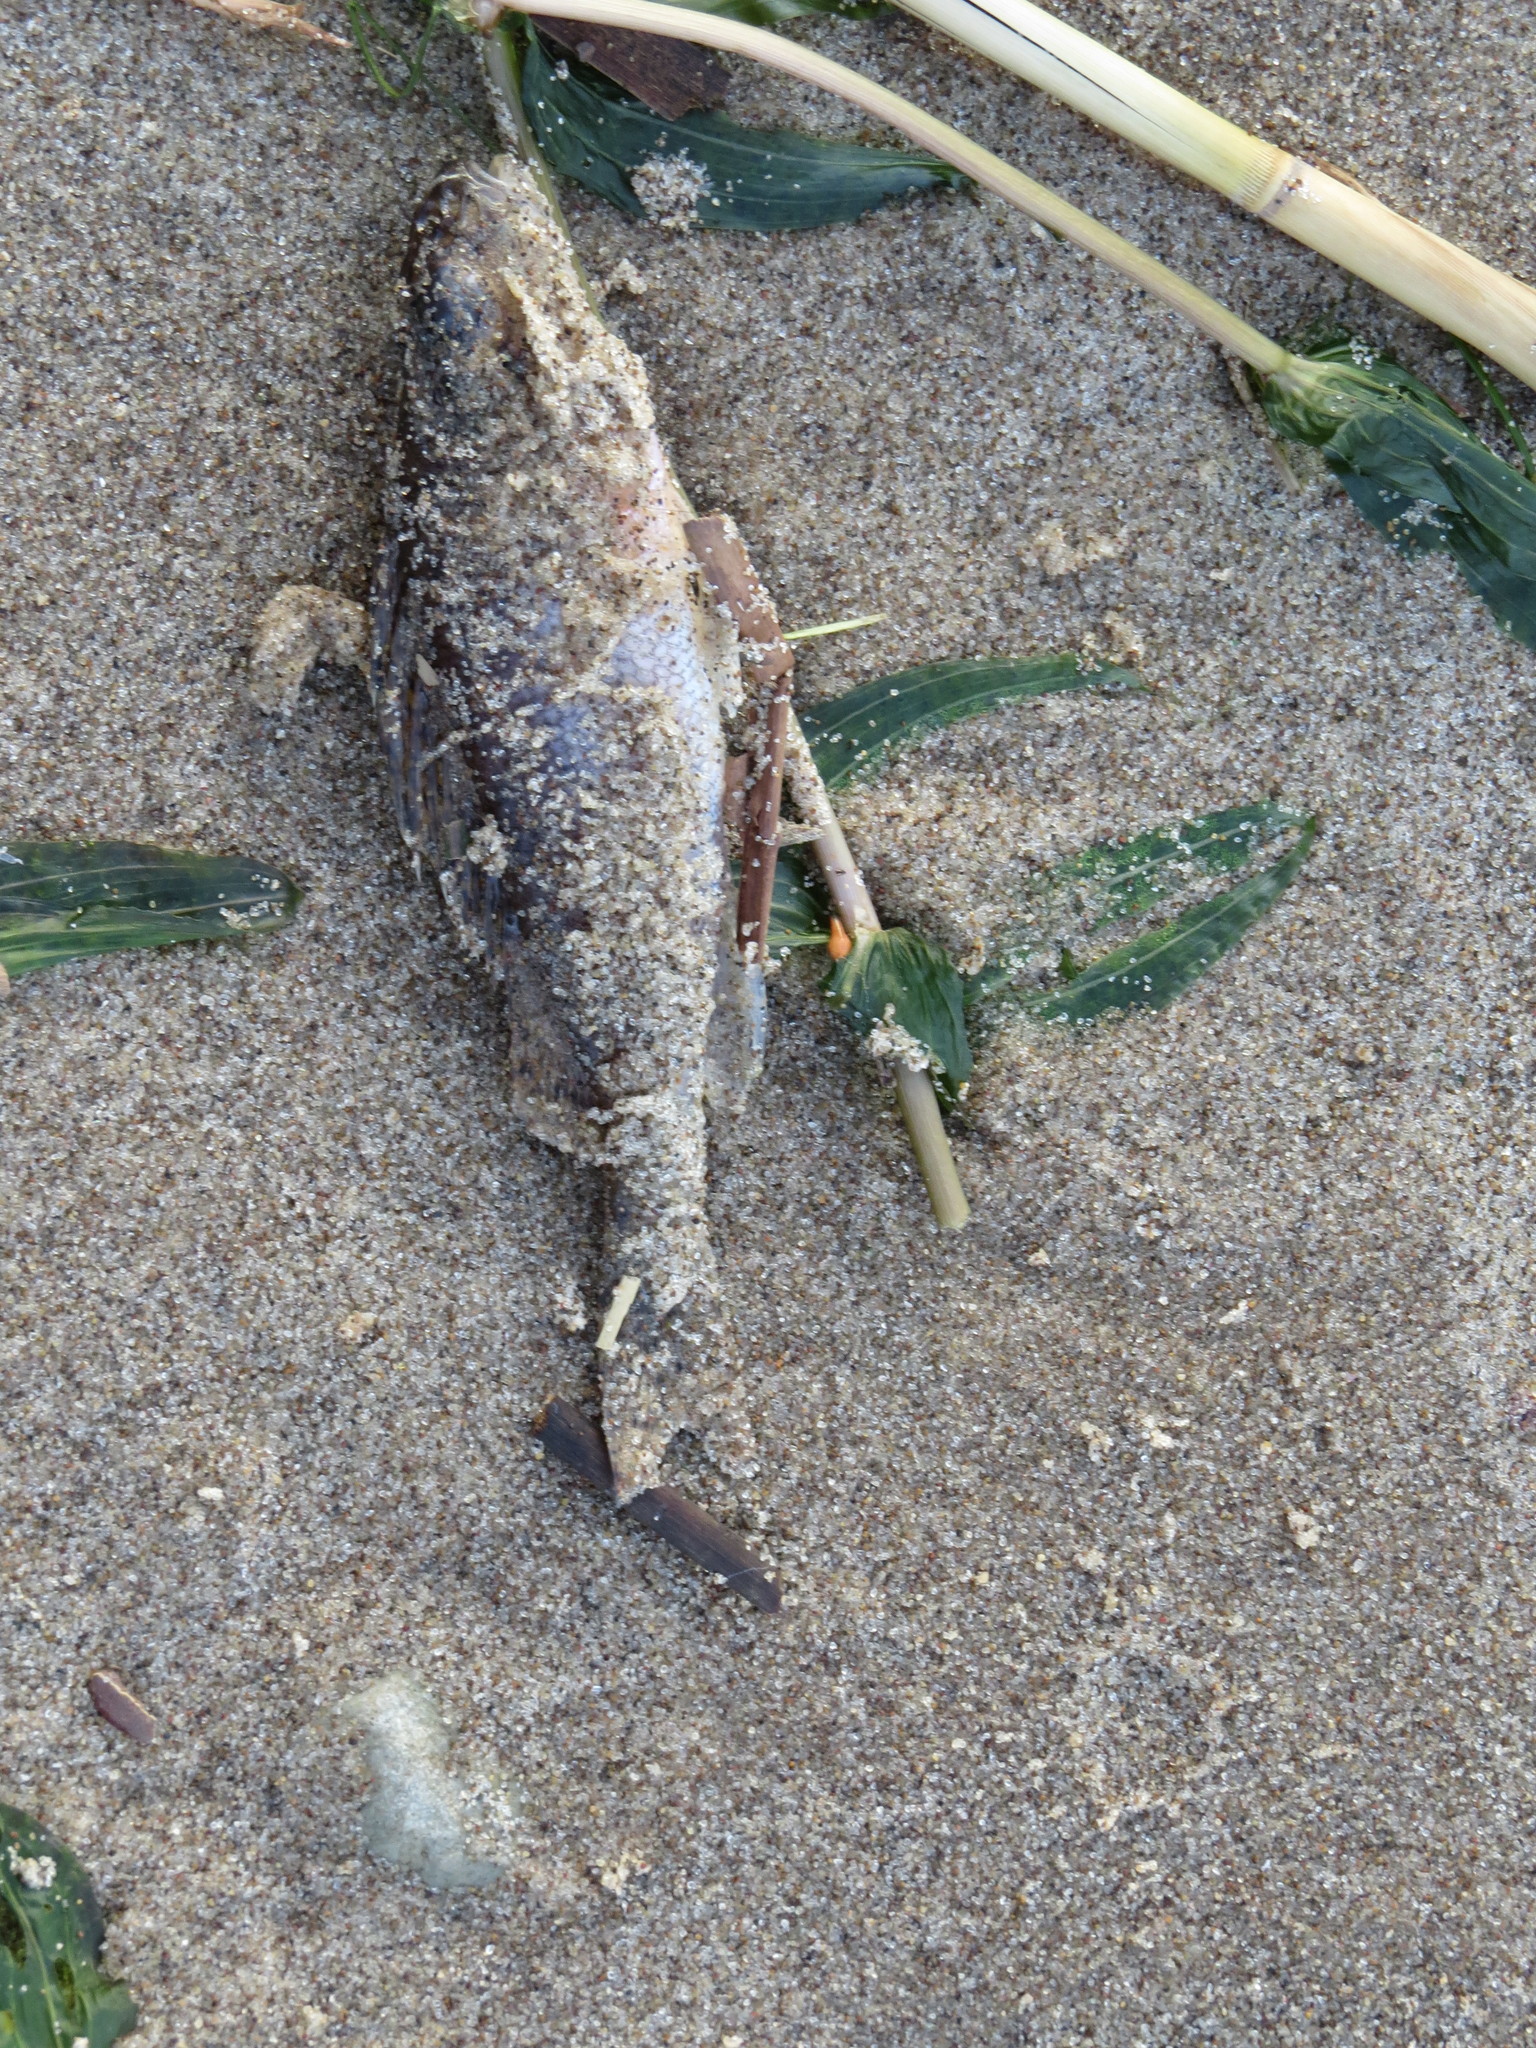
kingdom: Animalia
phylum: Chordata
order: Perciformes
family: Percidae
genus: Gymnocephalus
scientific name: Gymnocephalus cernua
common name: Ruffe
